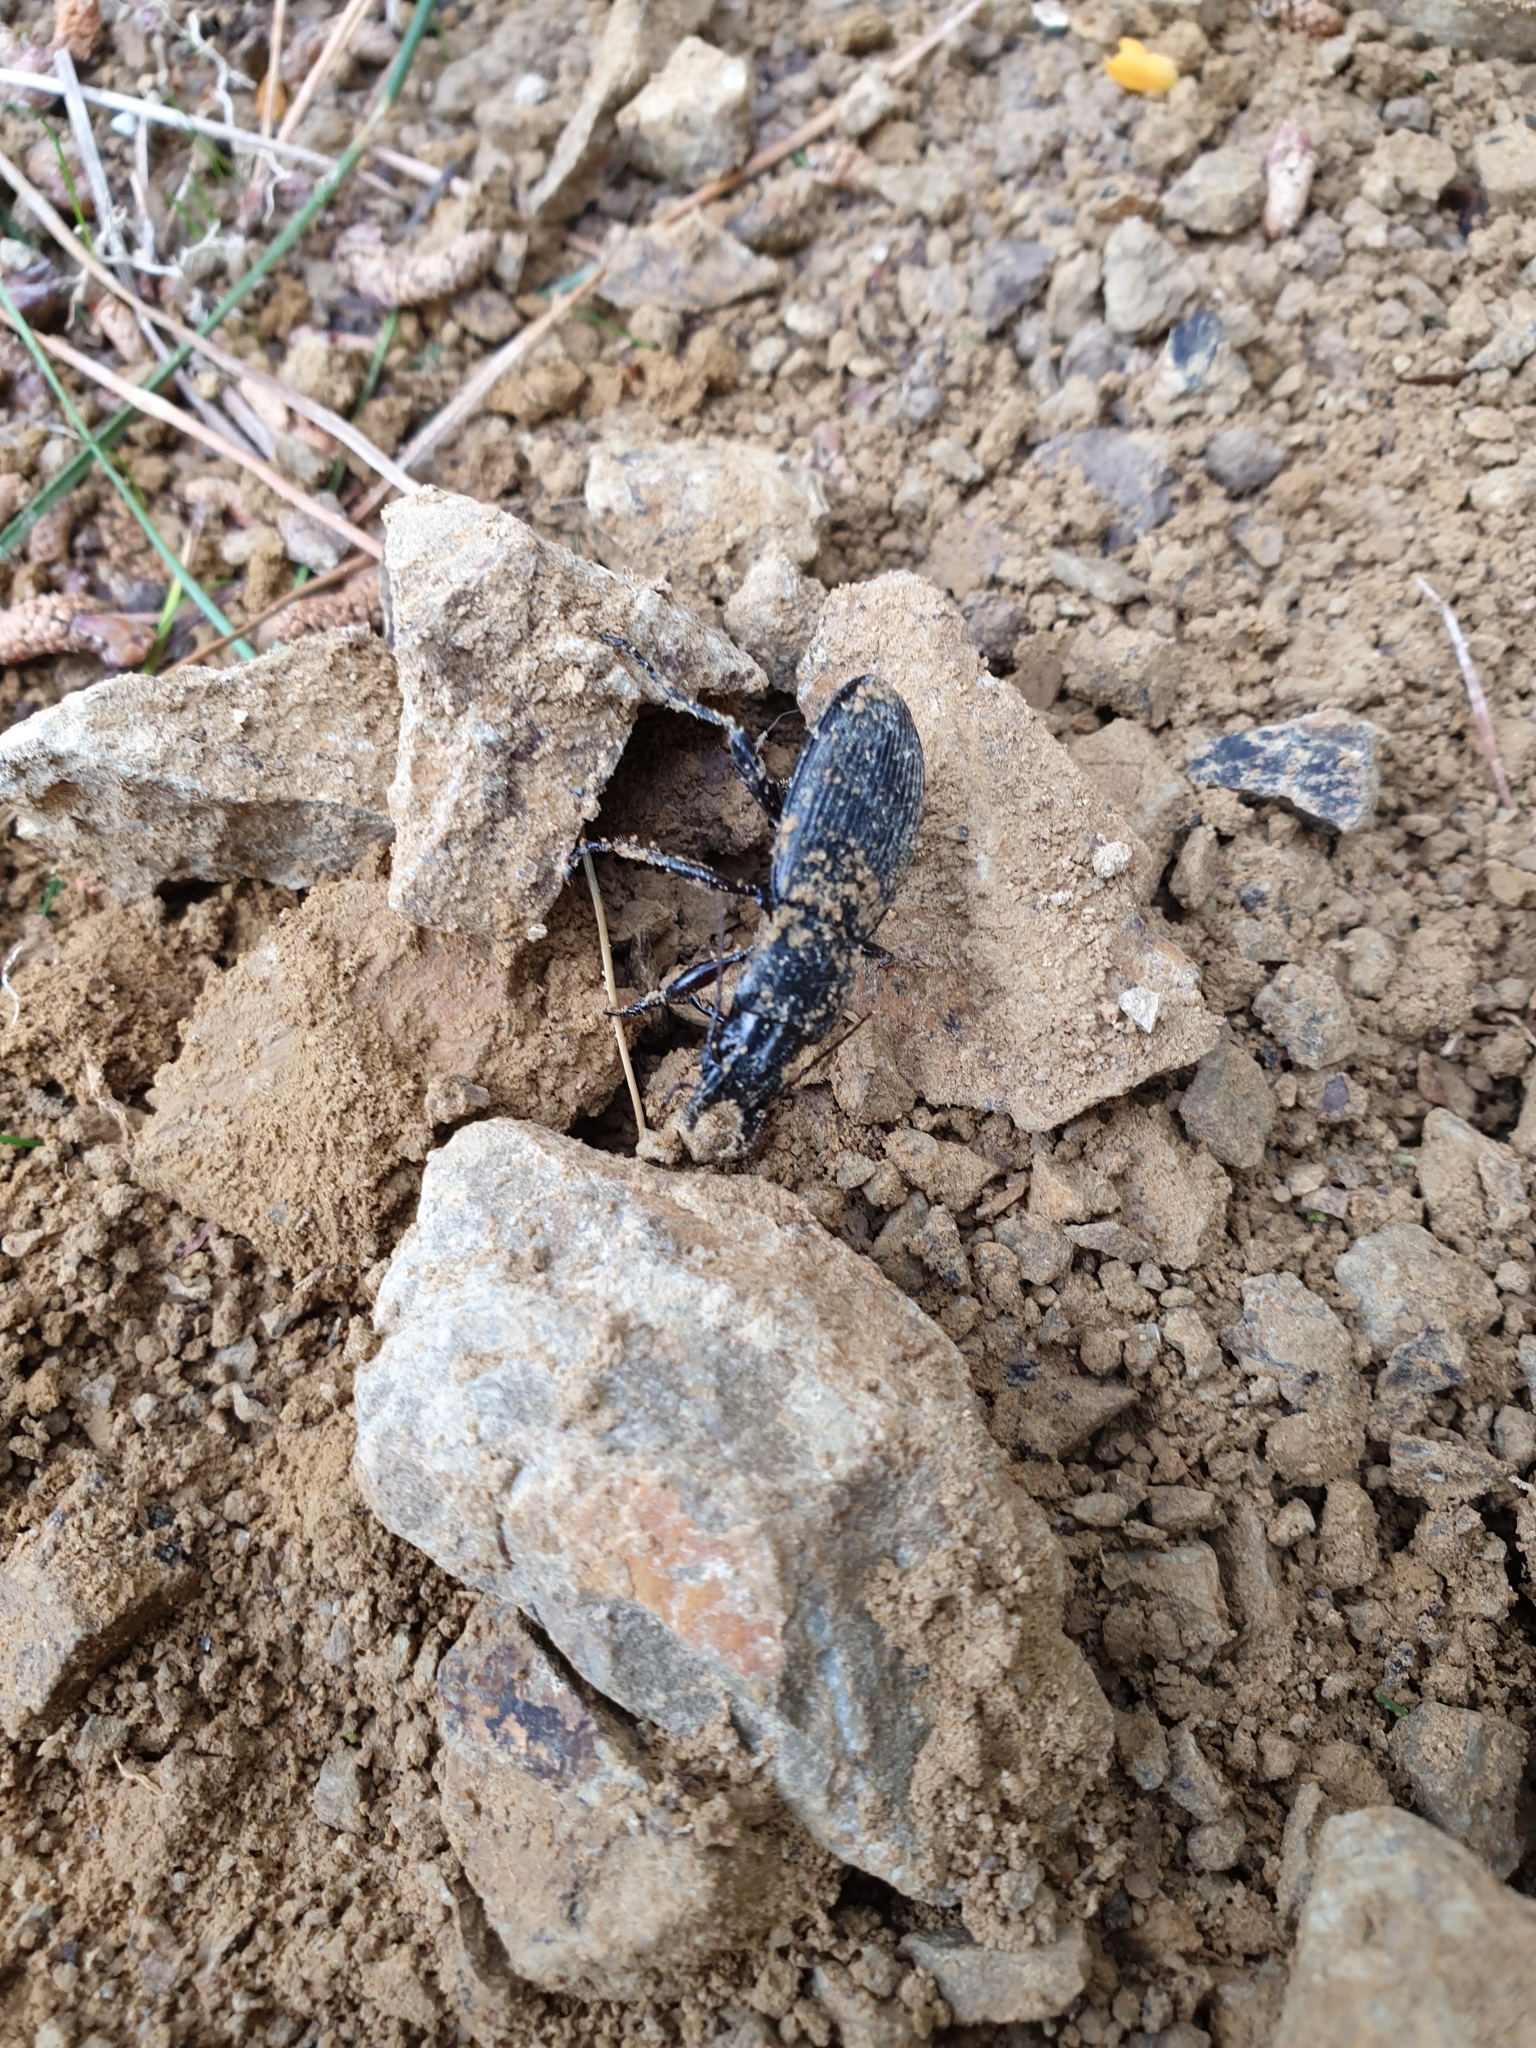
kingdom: Animalia
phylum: Arthropoda
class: Insecta
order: Coleoptera
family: Carabidae
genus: Plocamostethus
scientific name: Plocamostethus planiusculus
